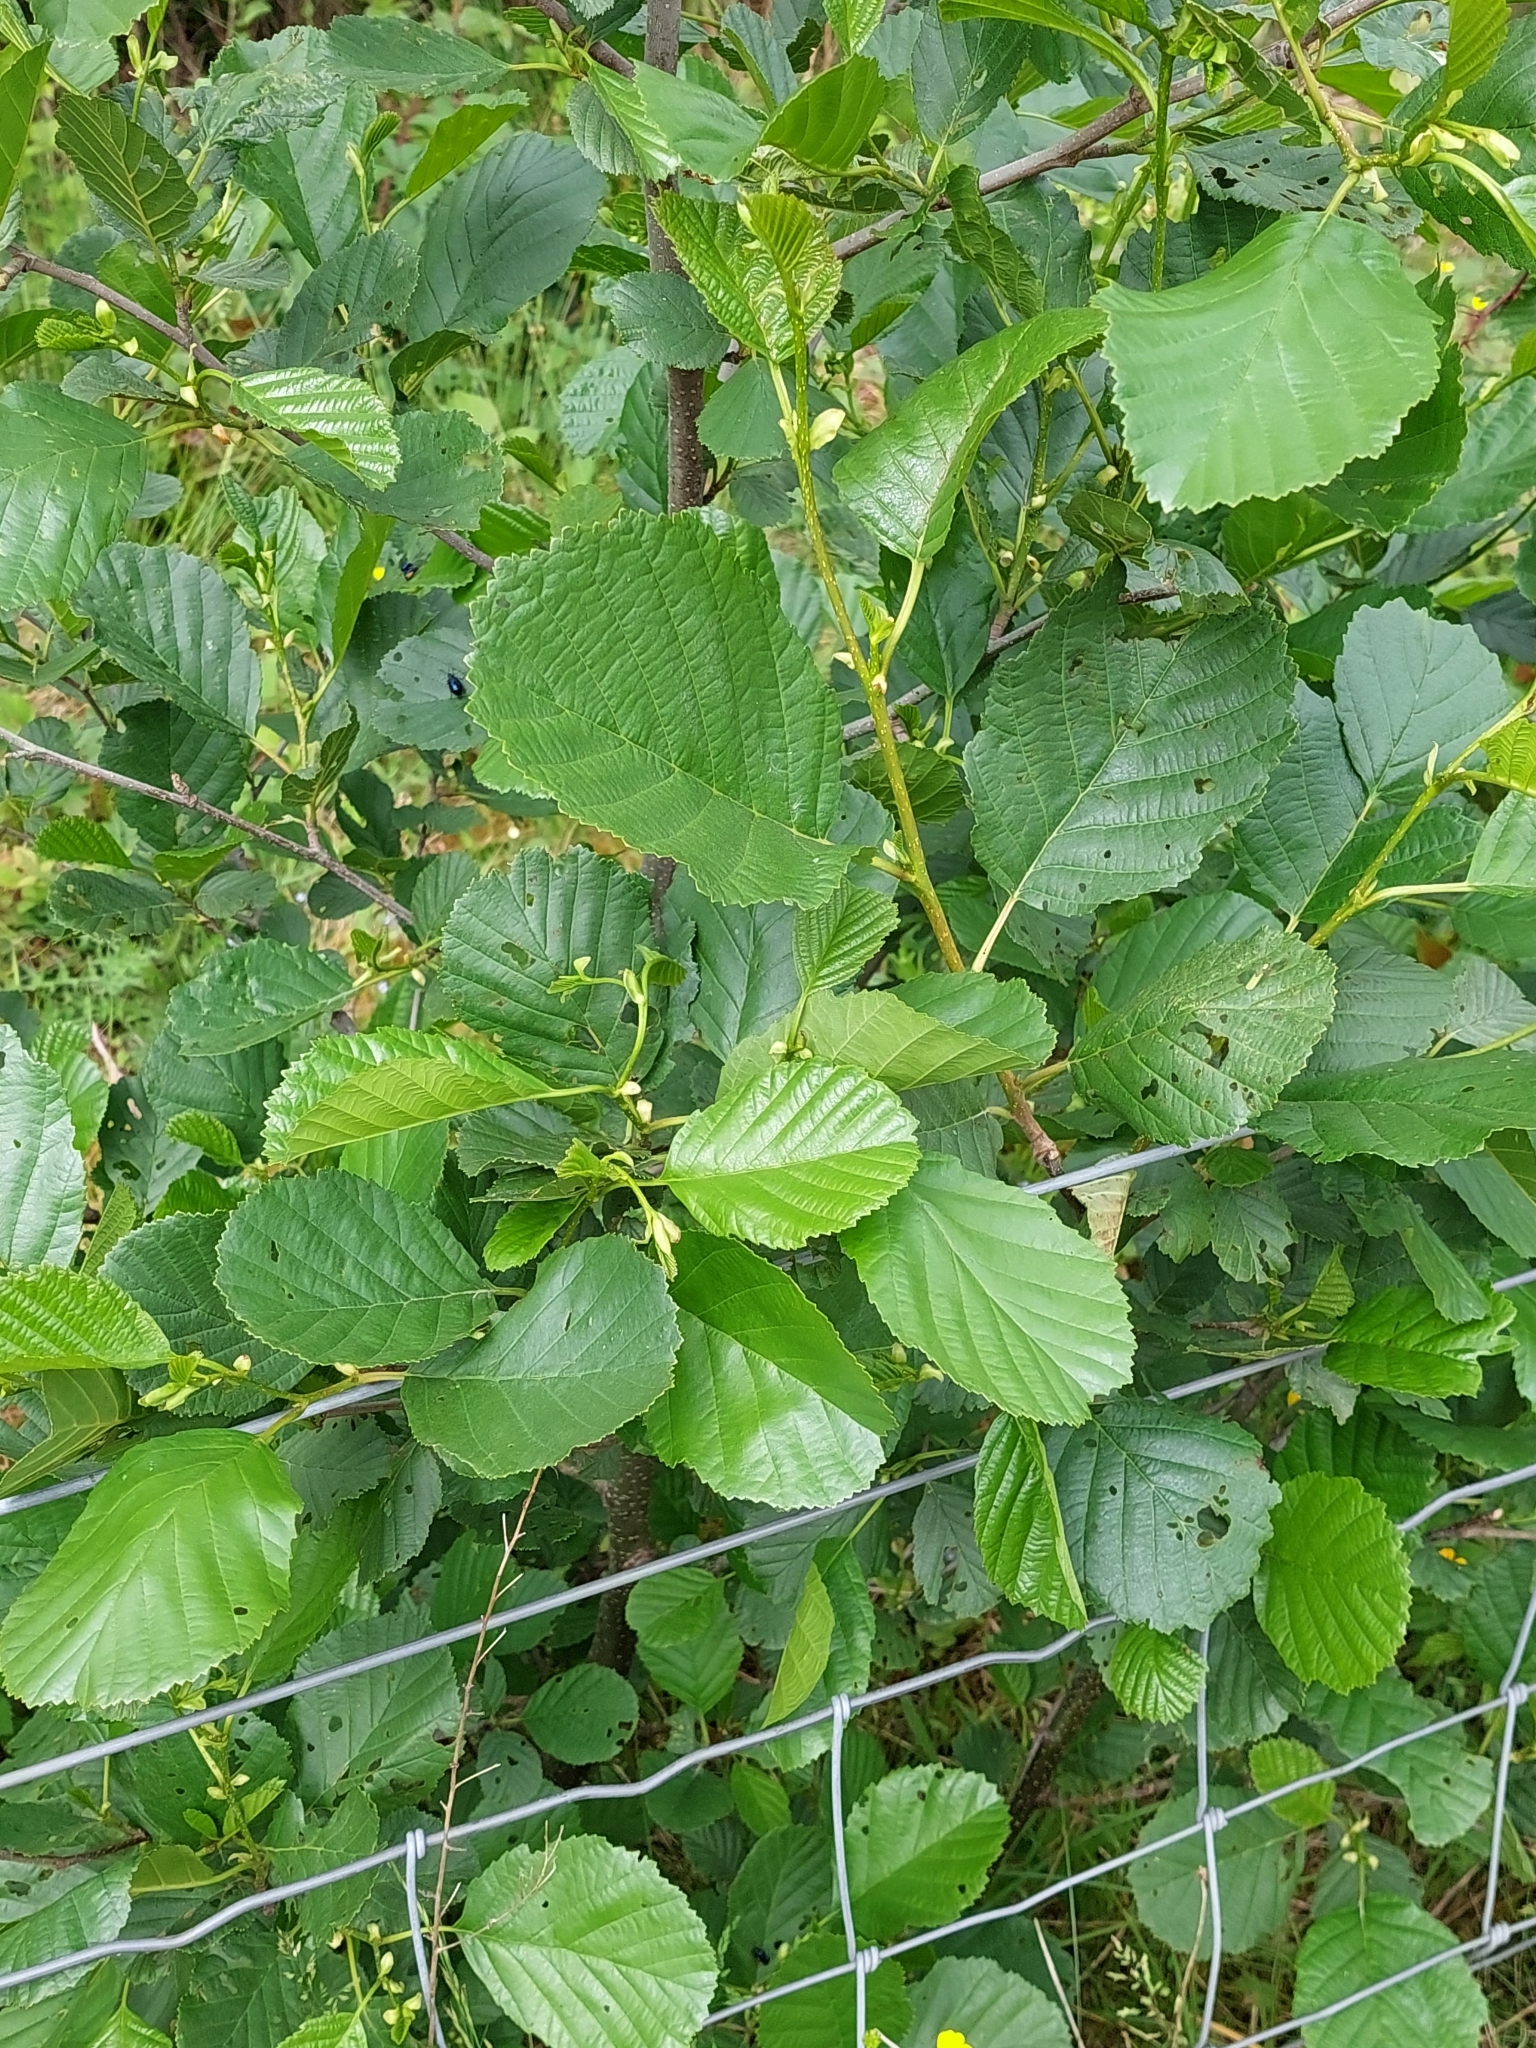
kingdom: Plantae
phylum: Tracheophyta
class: Magnoliopsida
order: Fagales
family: Betulaceae
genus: Alnus
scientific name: Alnus glutinosa
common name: Black alder
